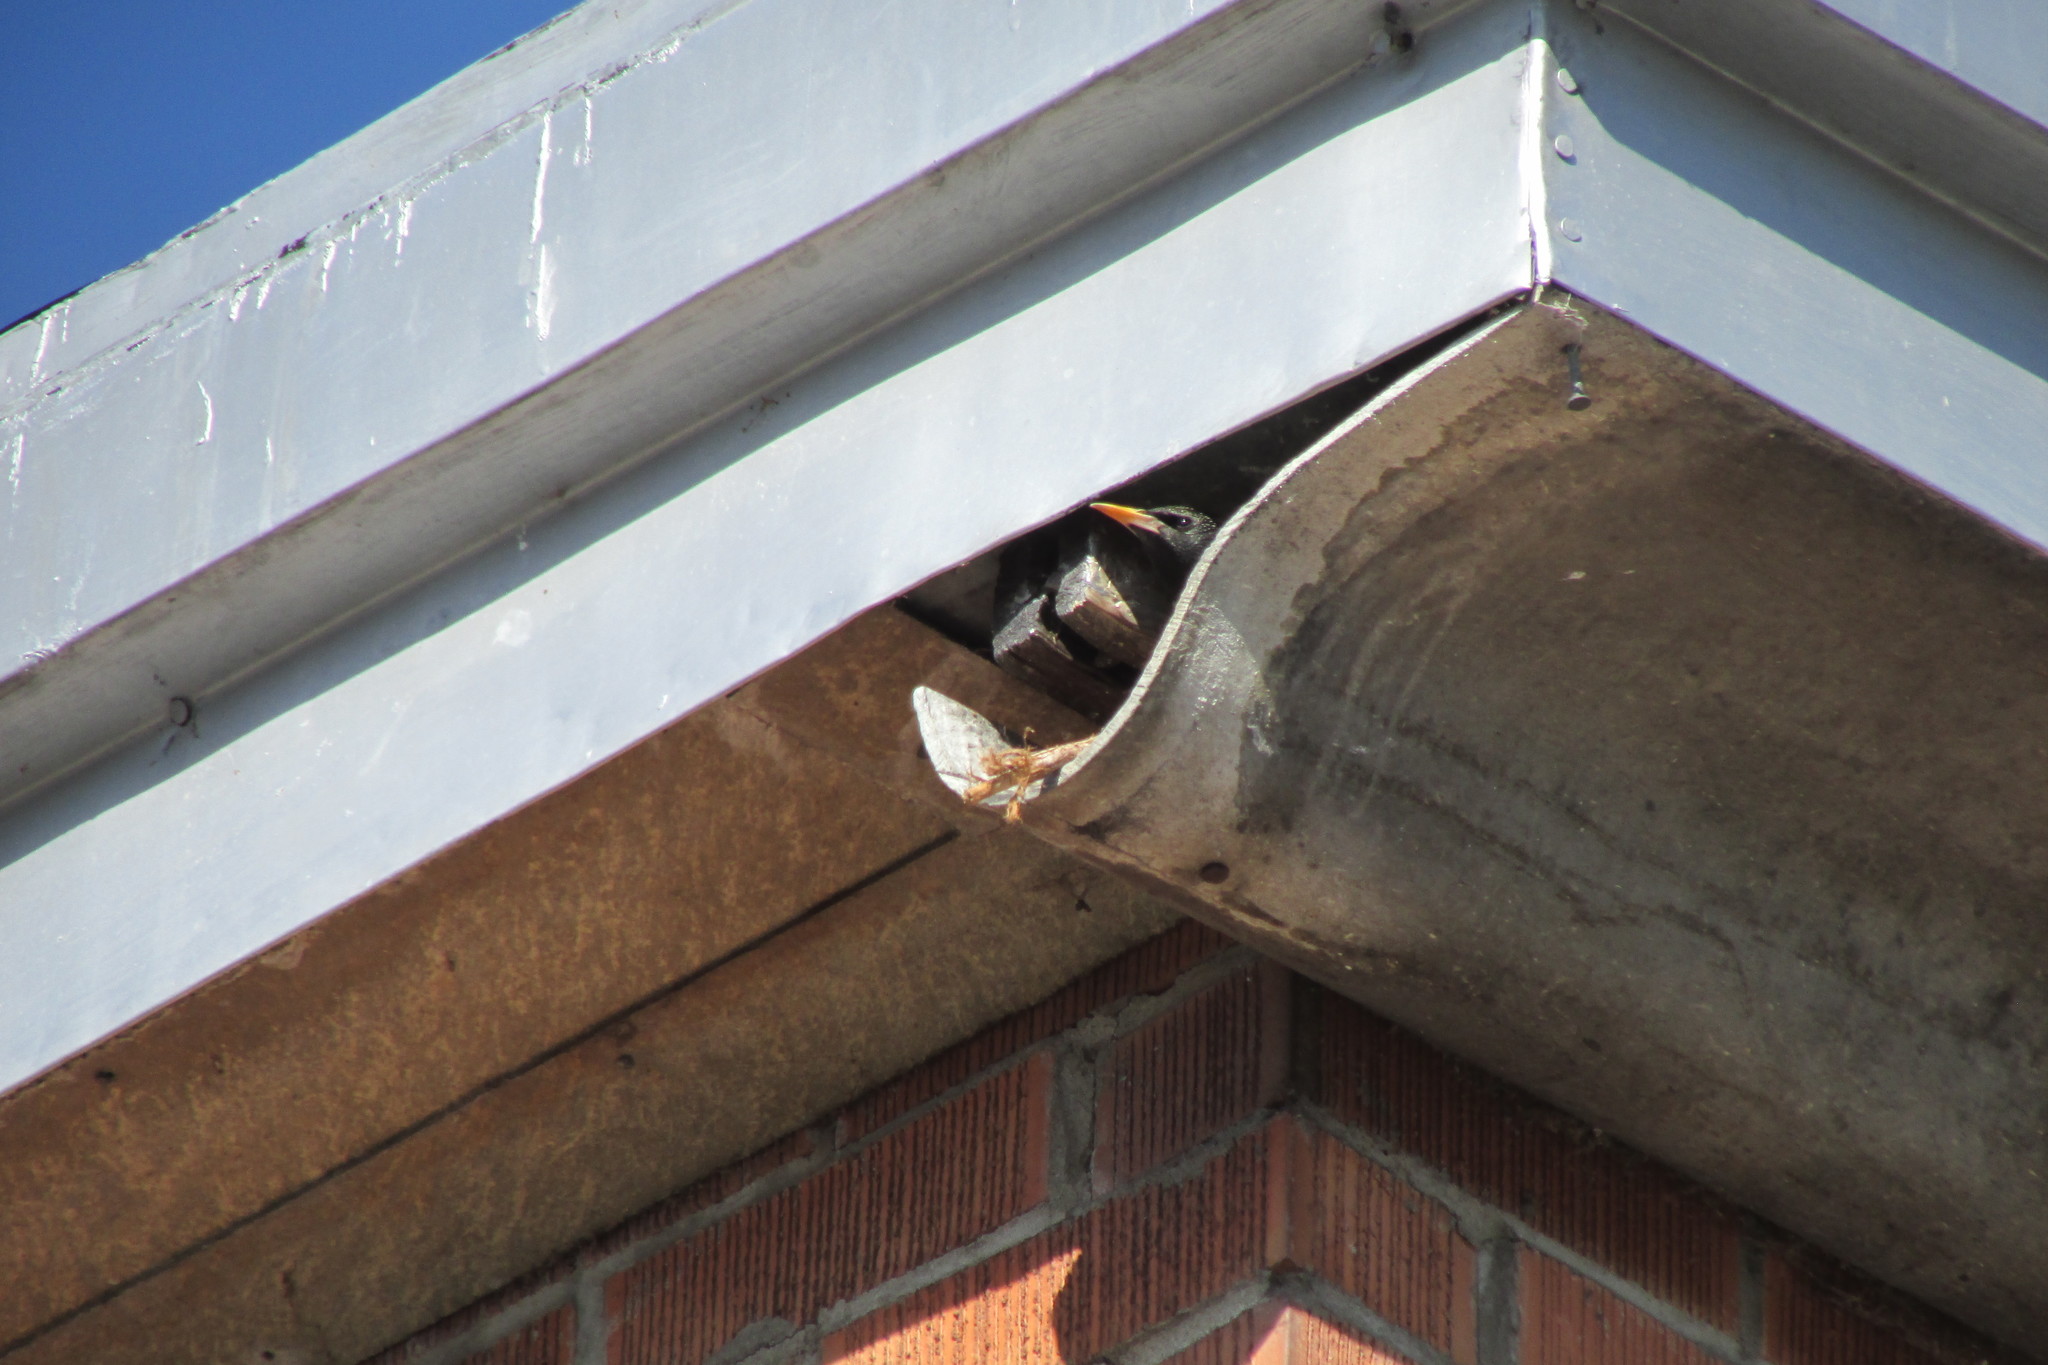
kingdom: Animalia
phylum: Chordata
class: Aves
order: Passeriformes
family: Sturnidae
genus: Sturnus
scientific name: Sturnus vulgaris
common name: Common starling
